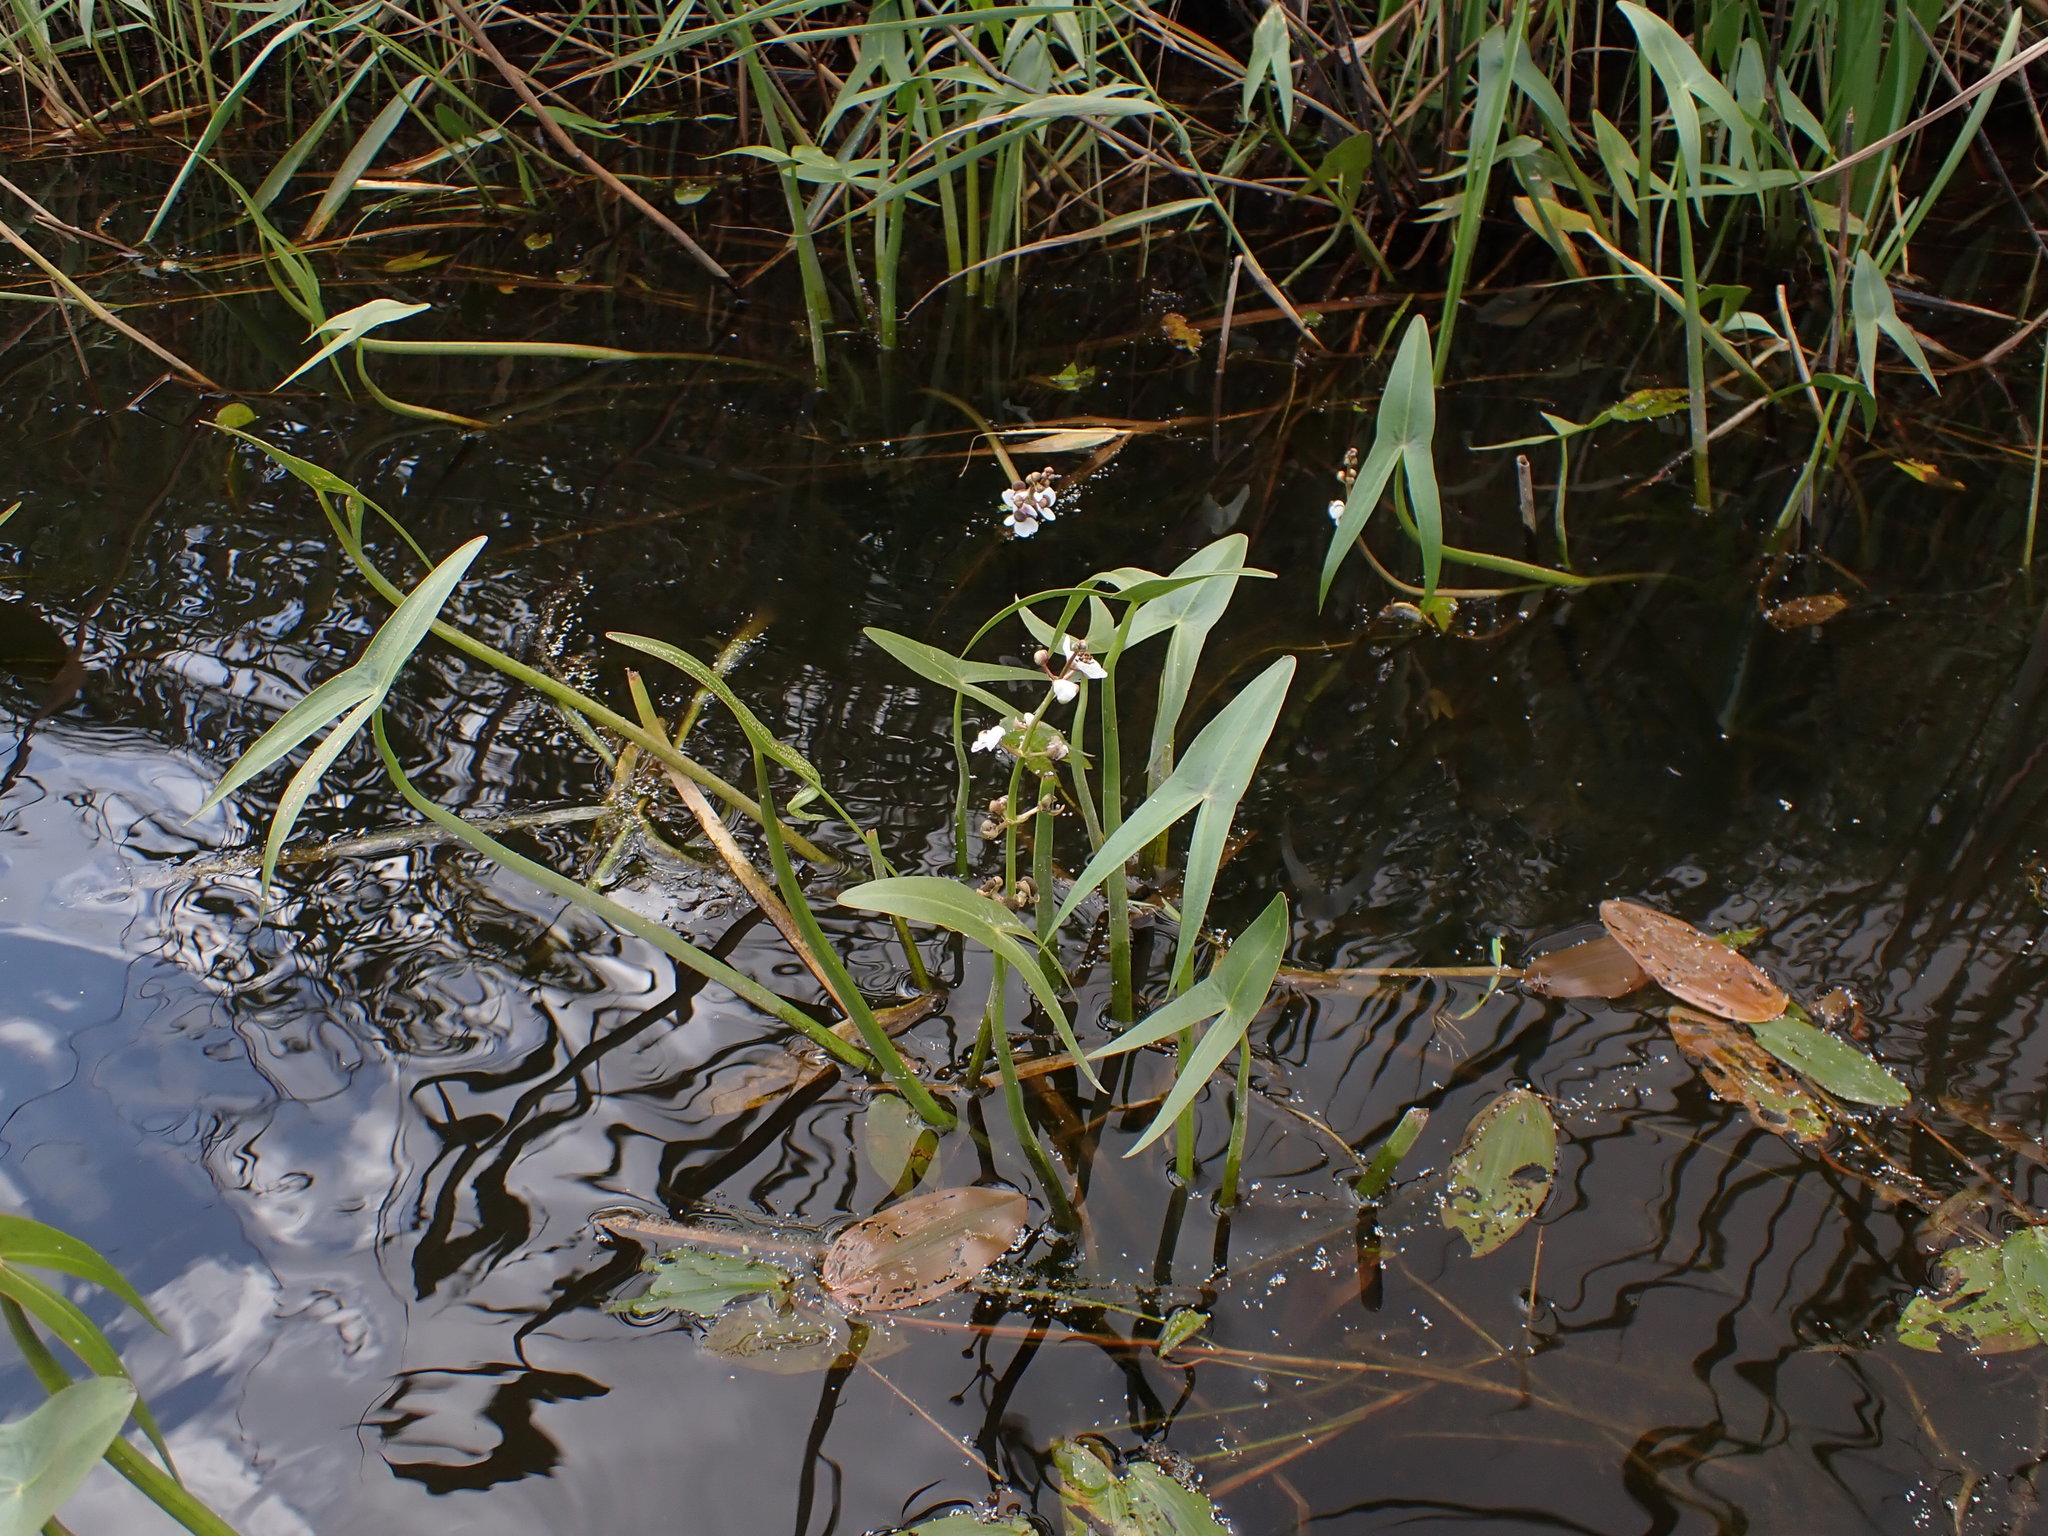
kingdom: Plantae
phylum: Tracheophyta
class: Liliopsida
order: Alismatales
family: Alismataceae
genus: Sagittaria
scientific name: Sagittaria sagittifolia
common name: Arrowhead
